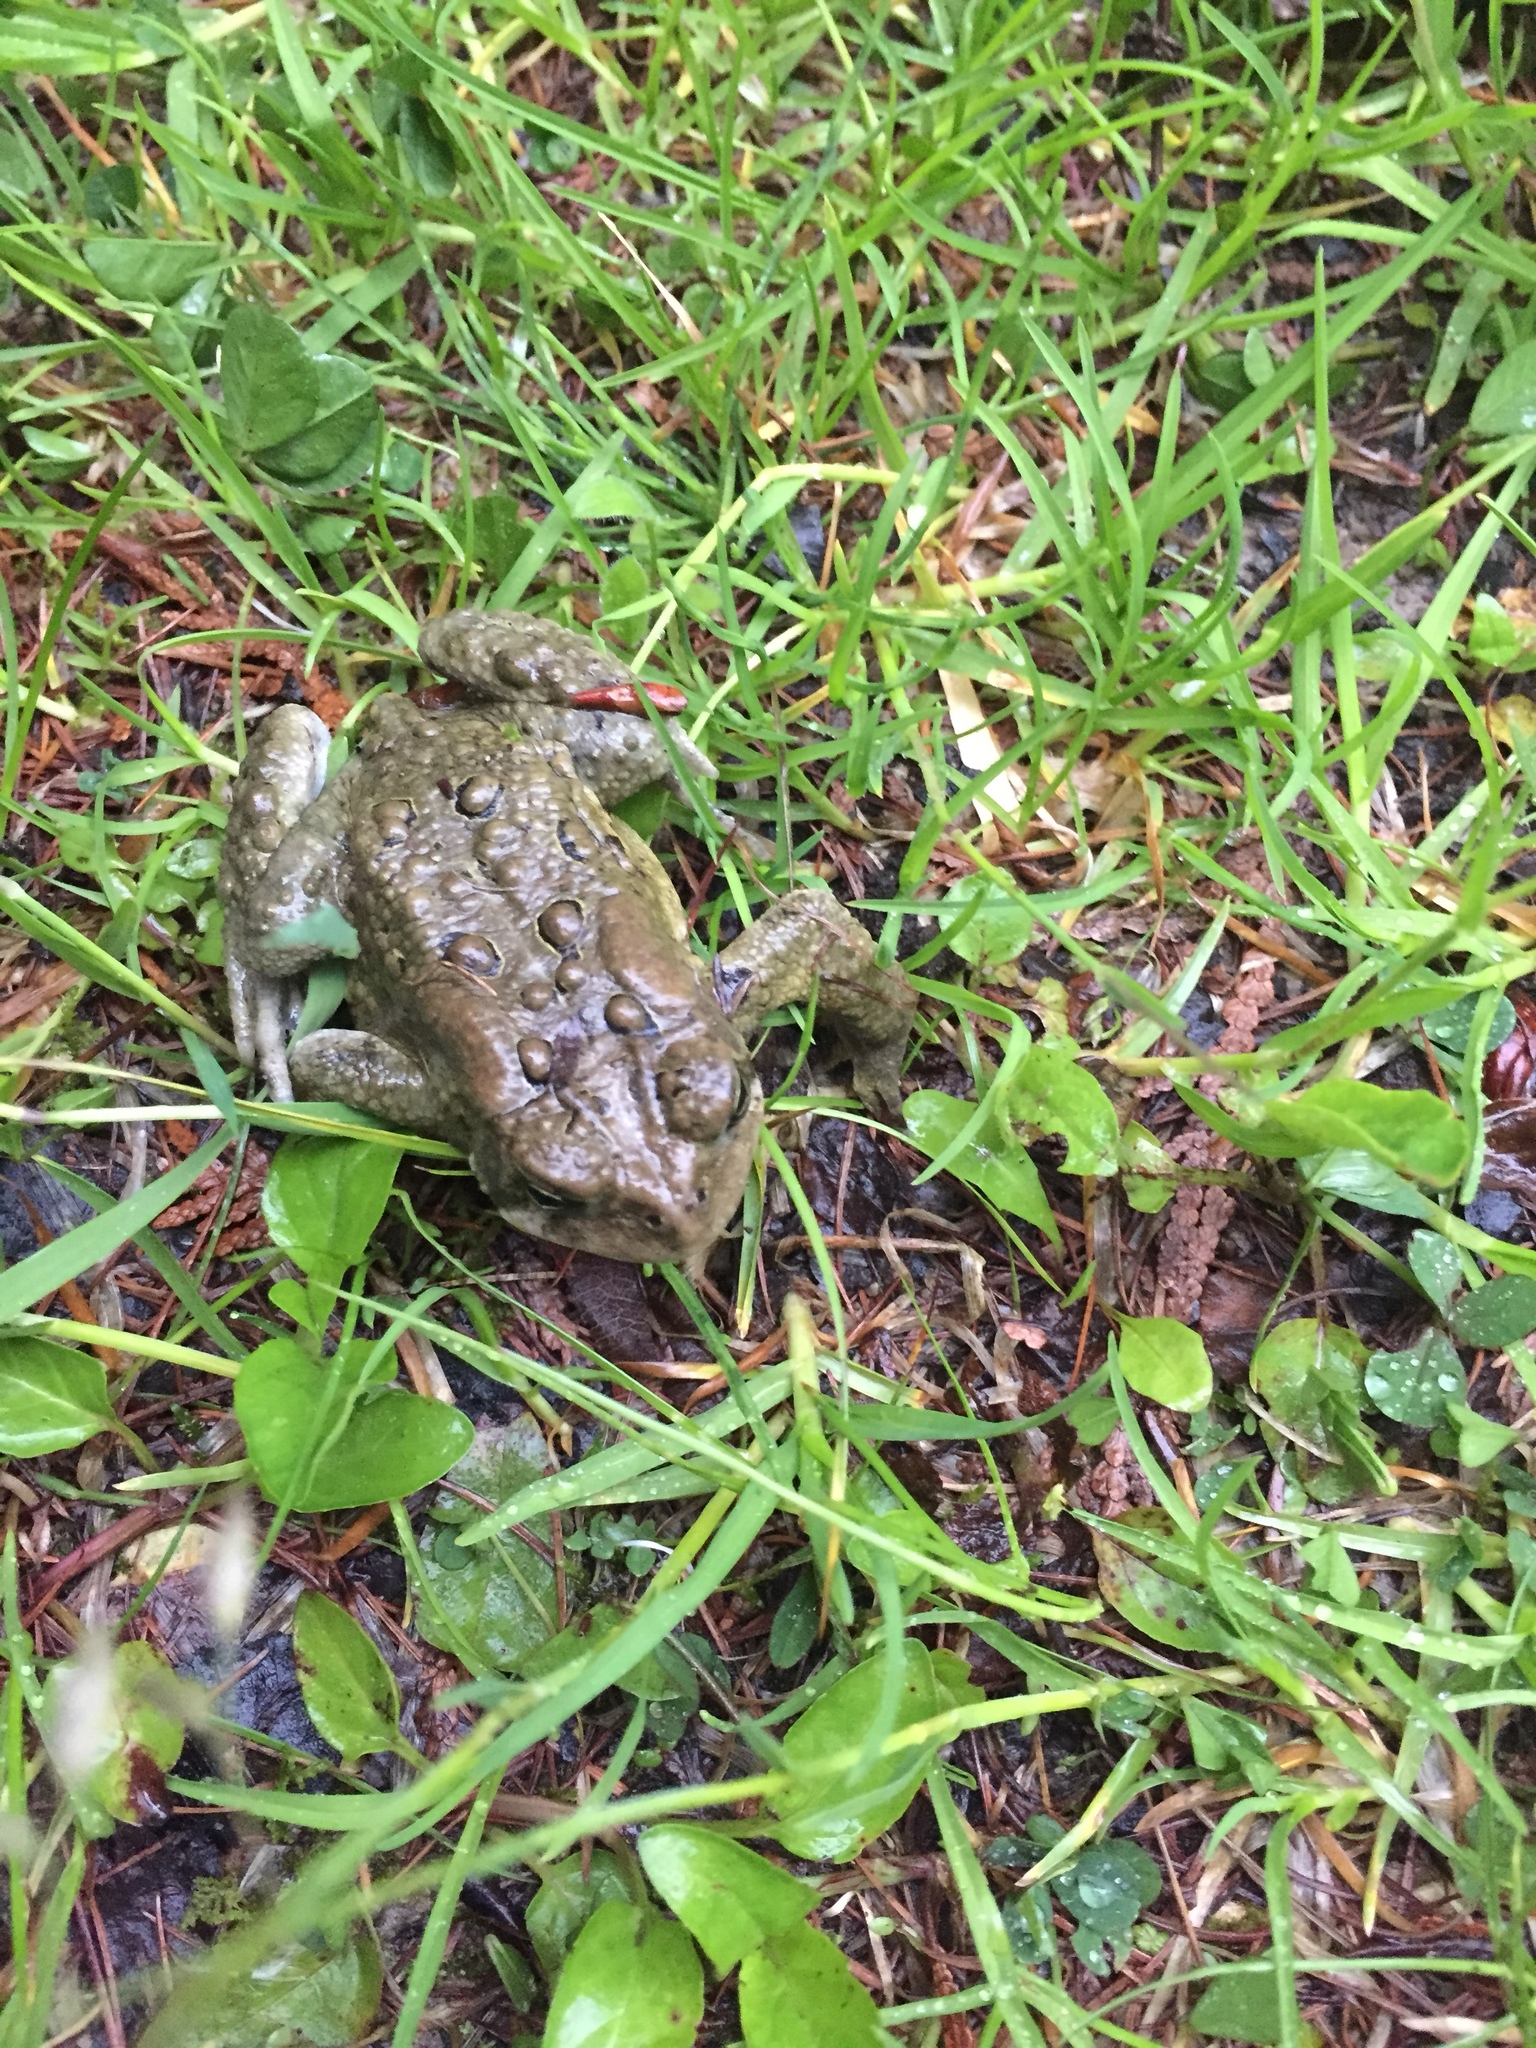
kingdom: Animalia
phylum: Chordata
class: Amphibia
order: Anura
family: Bufonidae
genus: Anaxyrus
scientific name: Anaxyrus americanus
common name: American toad
